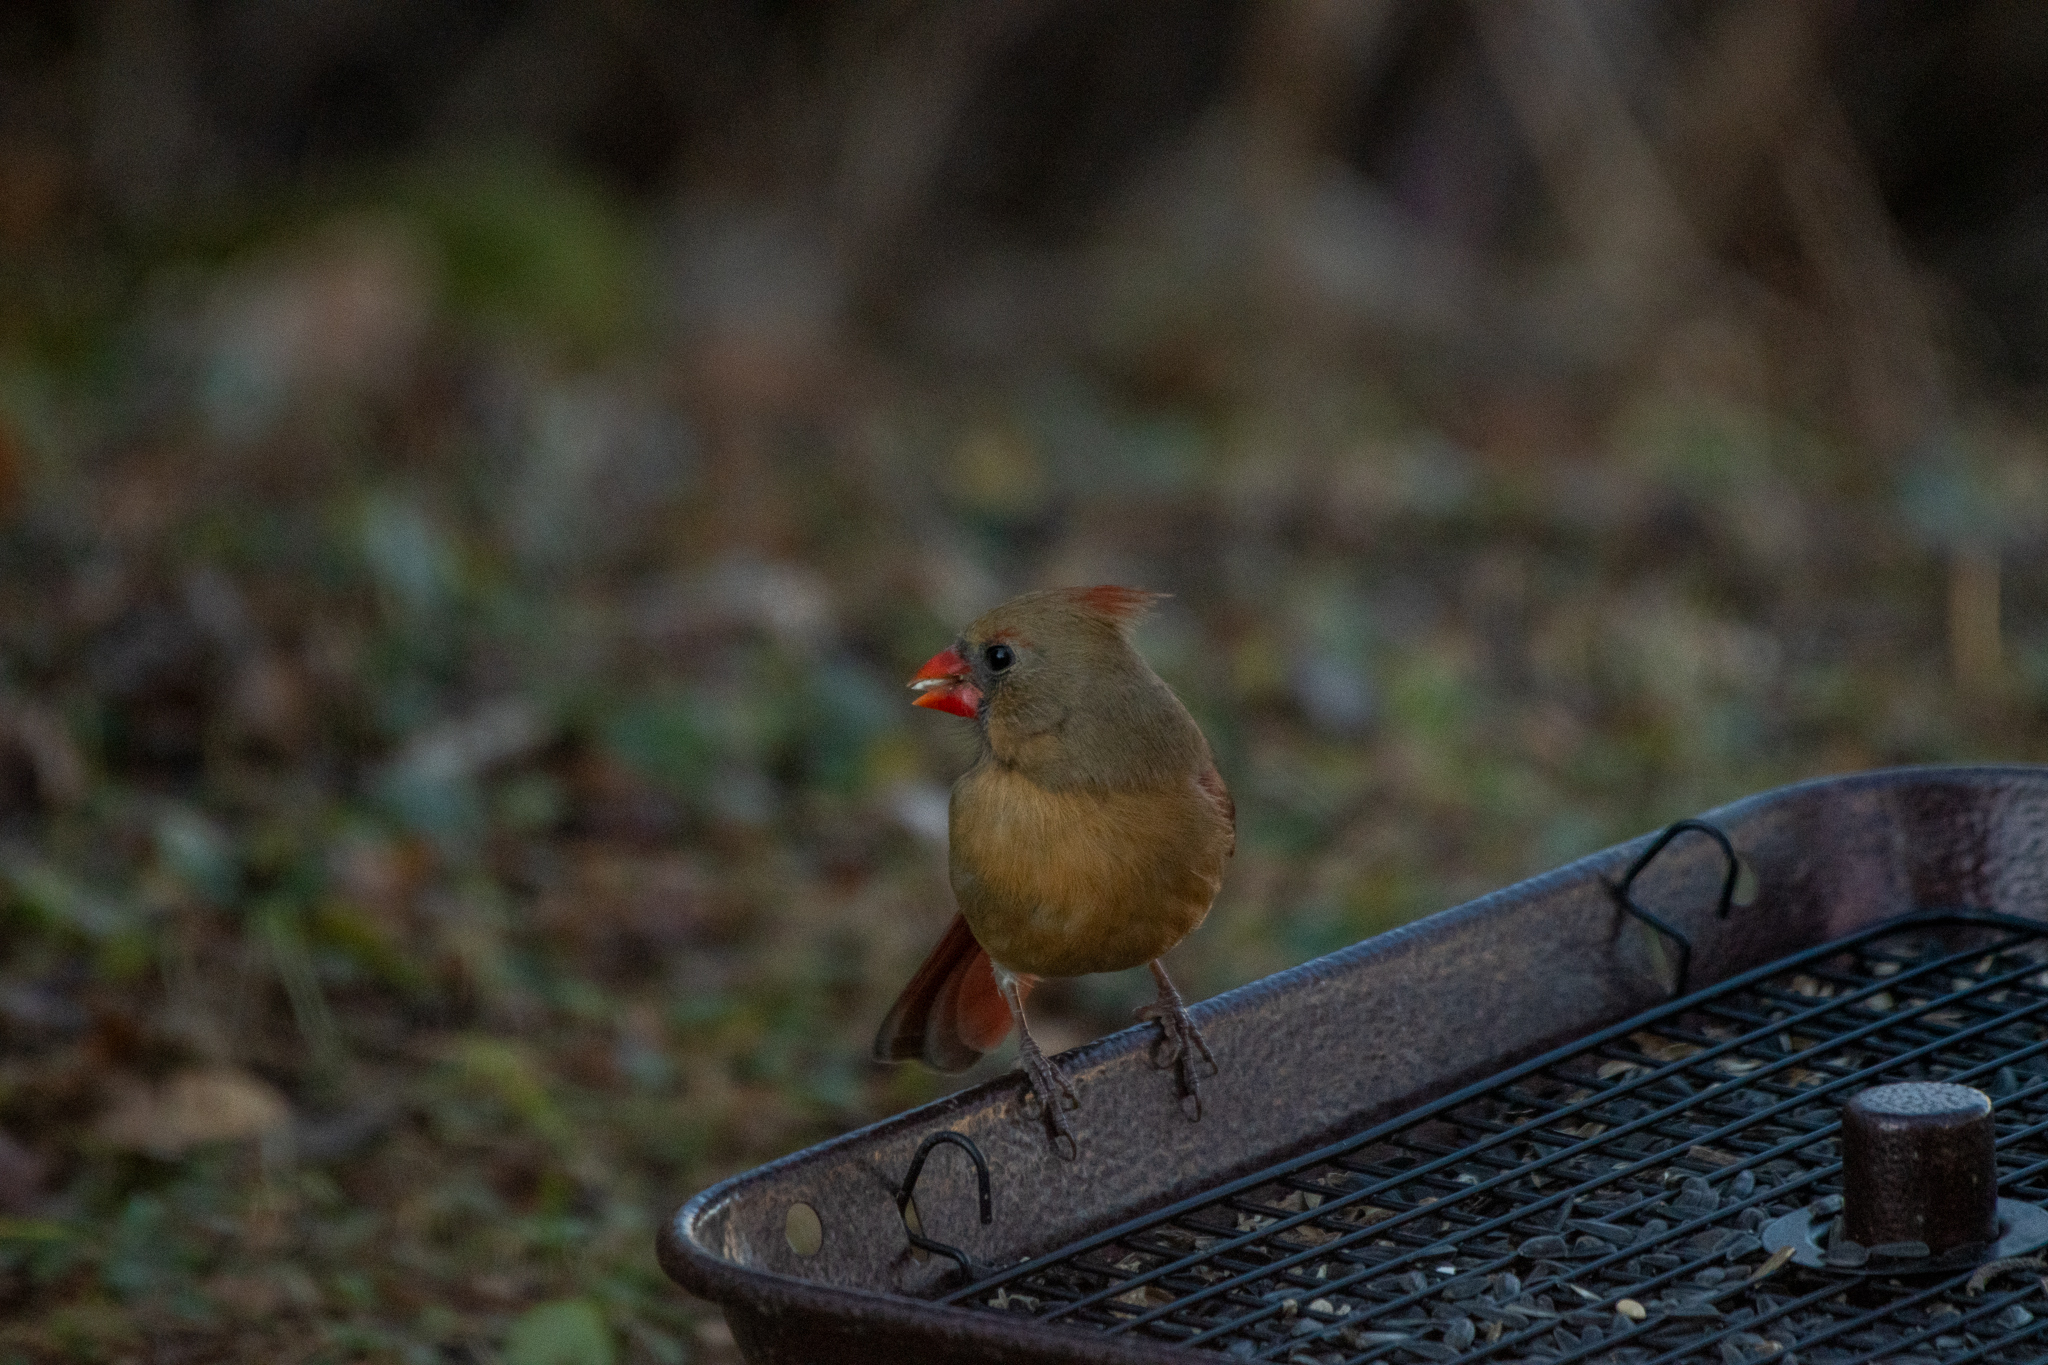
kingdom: Animalia
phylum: Chordata
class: Aves
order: Passeriformes
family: Cardinalidae
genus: Cardinalis
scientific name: Cardinalis cardinalis
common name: Northern cardinal
